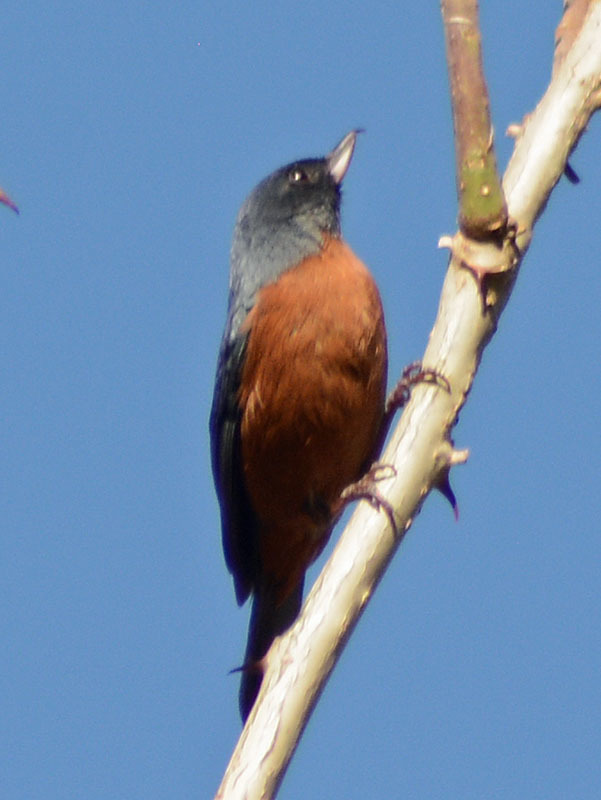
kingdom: Animalia
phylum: Chordata
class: Aves
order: Passeriformes
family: Thraupidae
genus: Diglossa
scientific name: Diglossa baritula
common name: Cinnamon-bellied flowerpiercer
